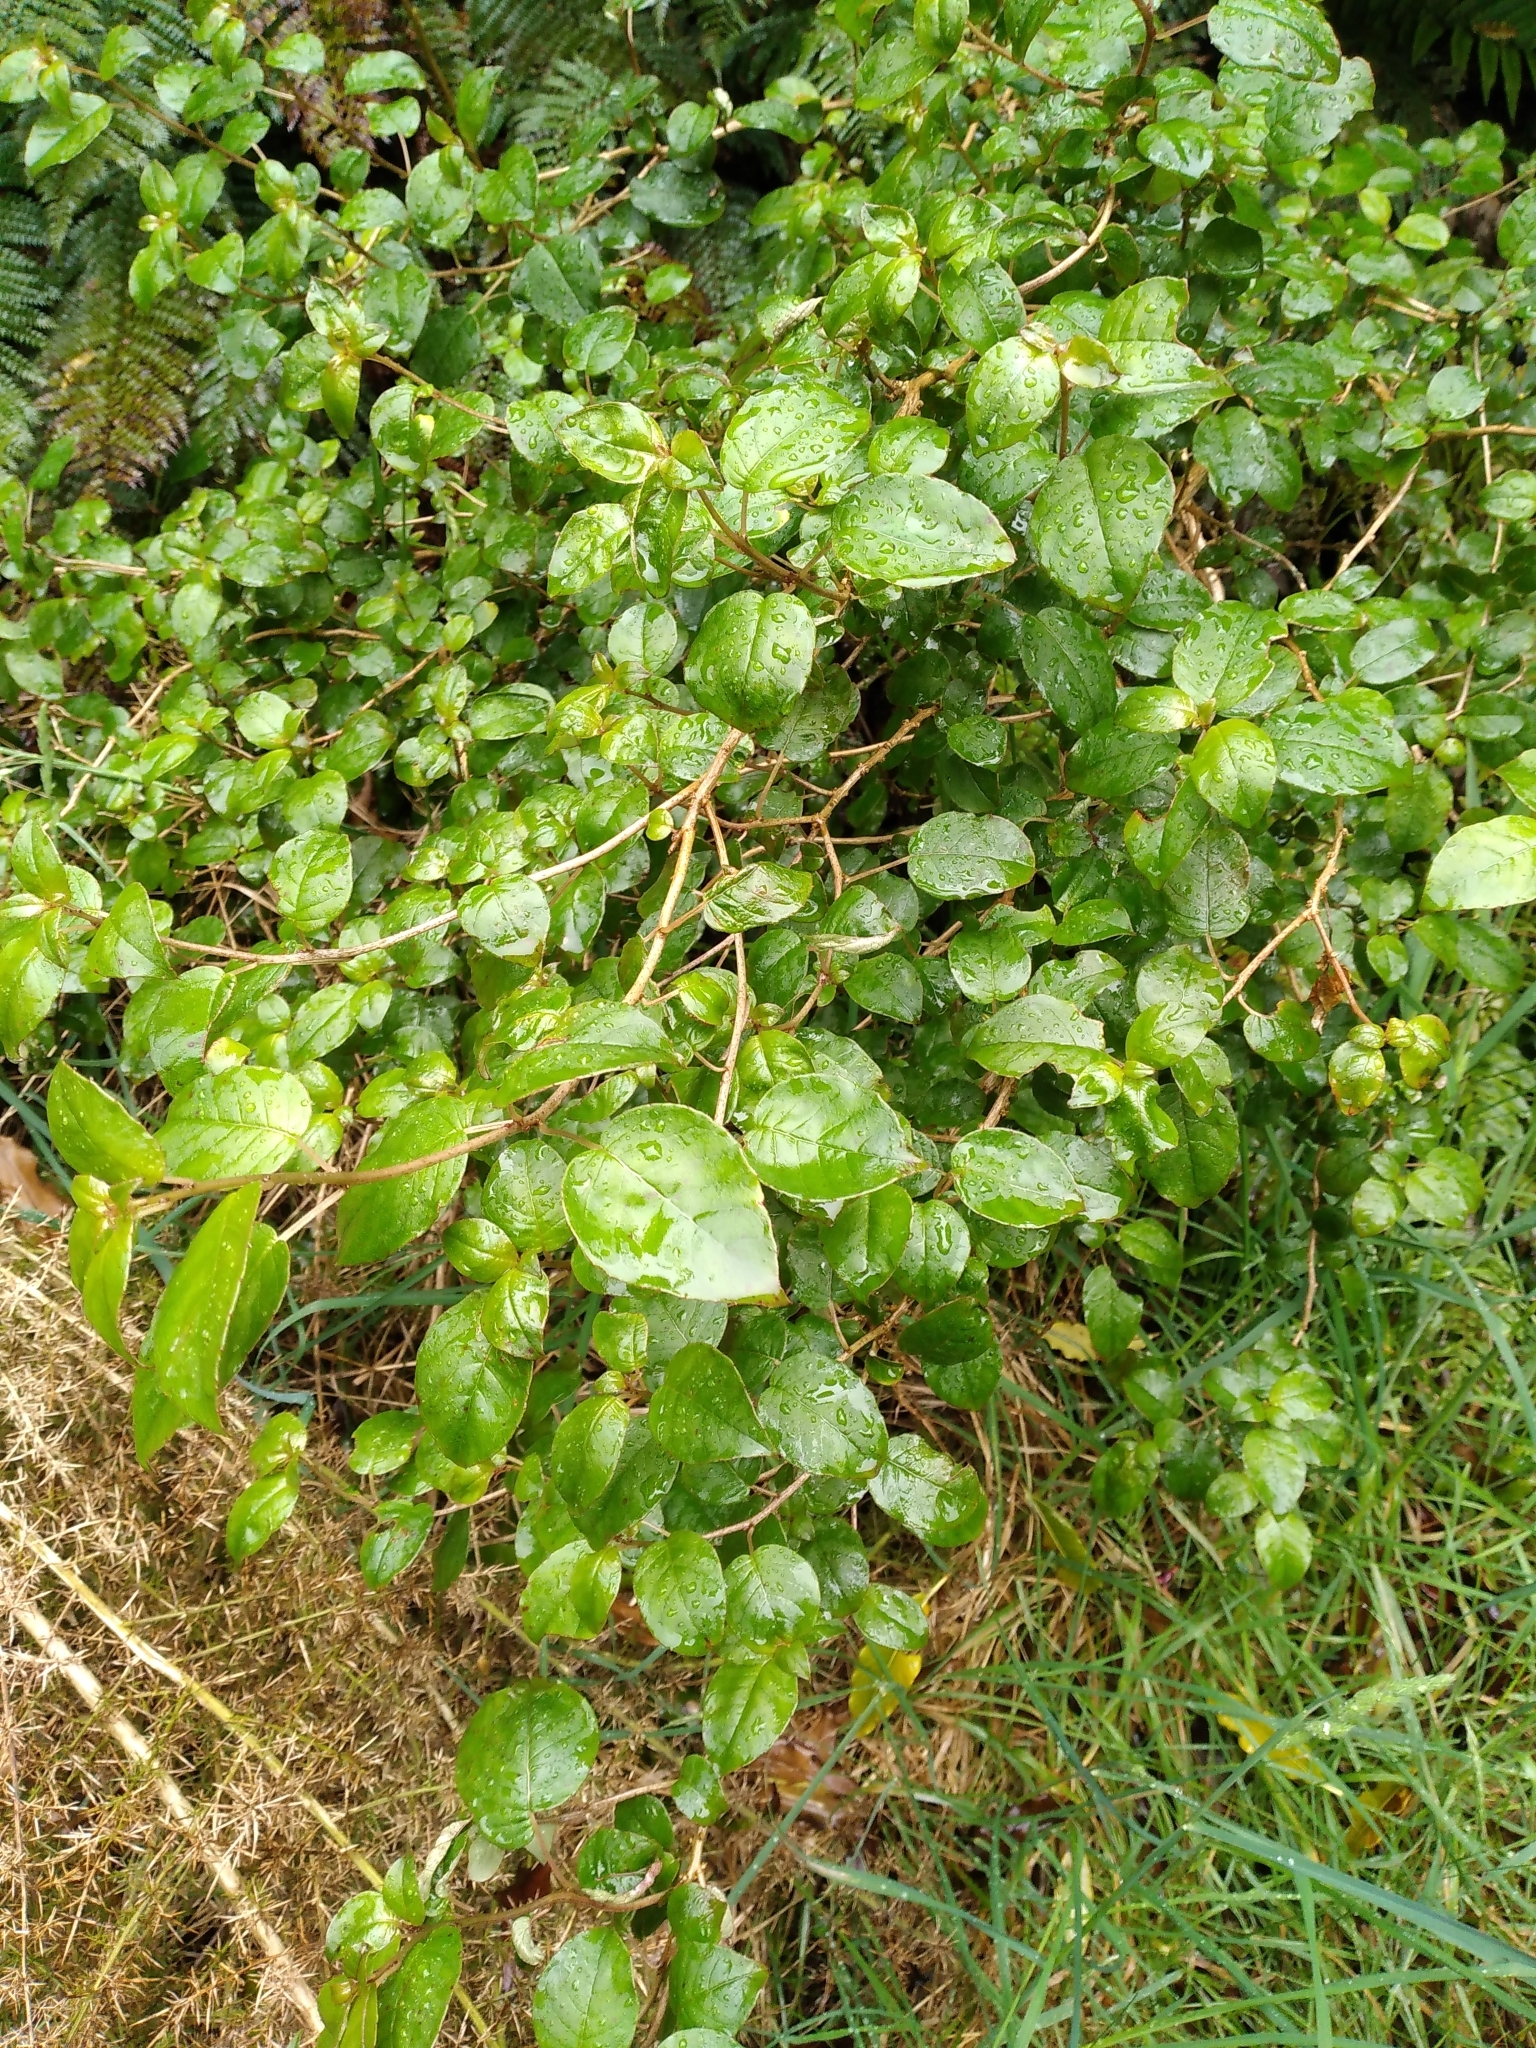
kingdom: Plantae
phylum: Tracheophyta
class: Magnoliopsida
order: Myrtales
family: Onagraceae
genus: Fuchsia
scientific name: Fuchsia colensoi
